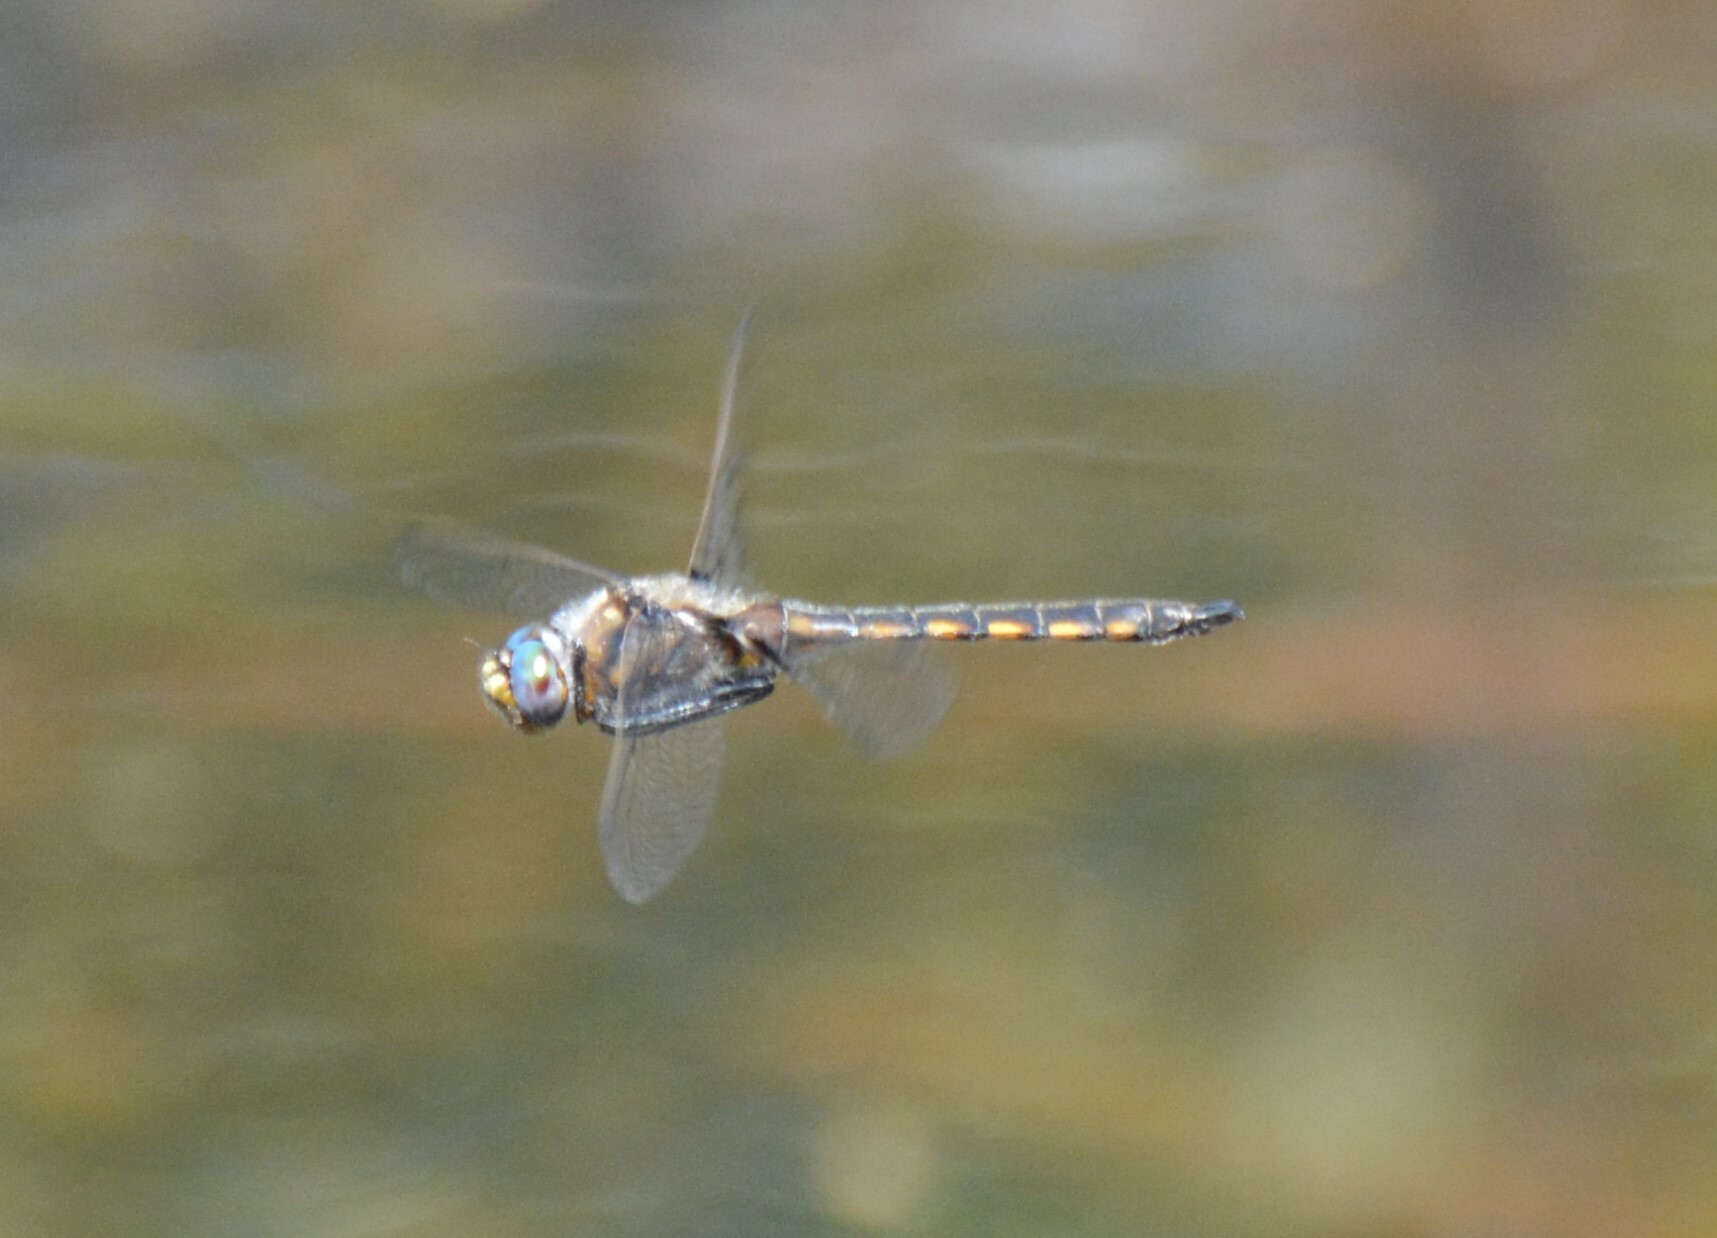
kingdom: Animalia
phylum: Arthropoda
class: Insecta
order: Odonata
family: Corduliidae
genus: Epitheca
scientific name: Epitheca canis
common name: Beaverpond baskettail
